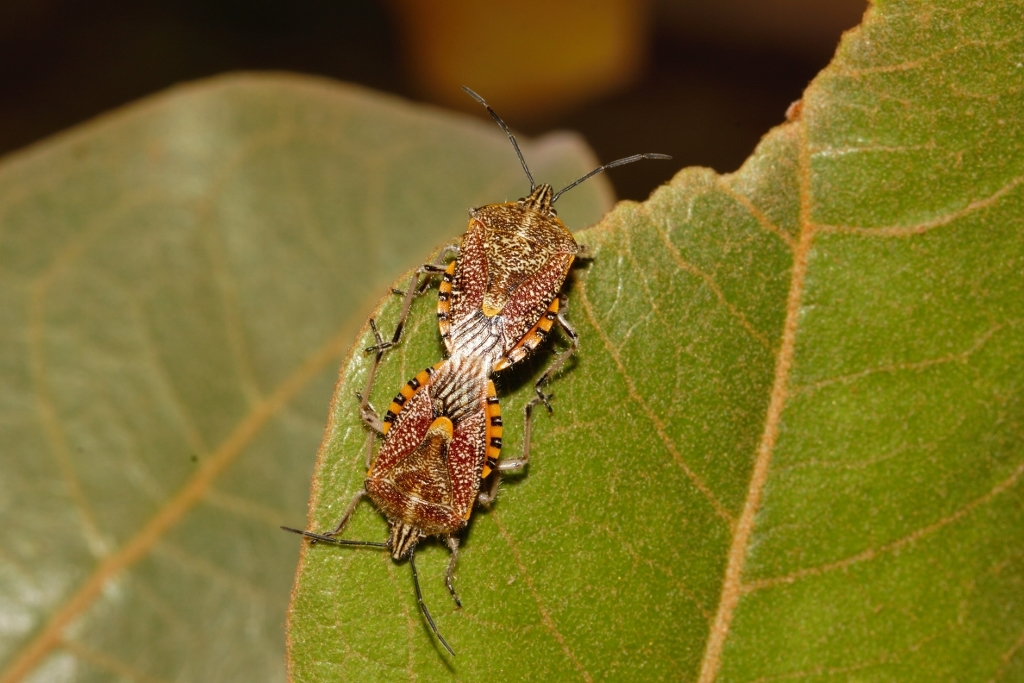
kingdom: Animalia
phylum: Arthropoda
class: Insecta
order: Hemiptera
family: Pentatomidae
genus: Agonoscelis
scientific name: Agonoscelis versicoloratus
